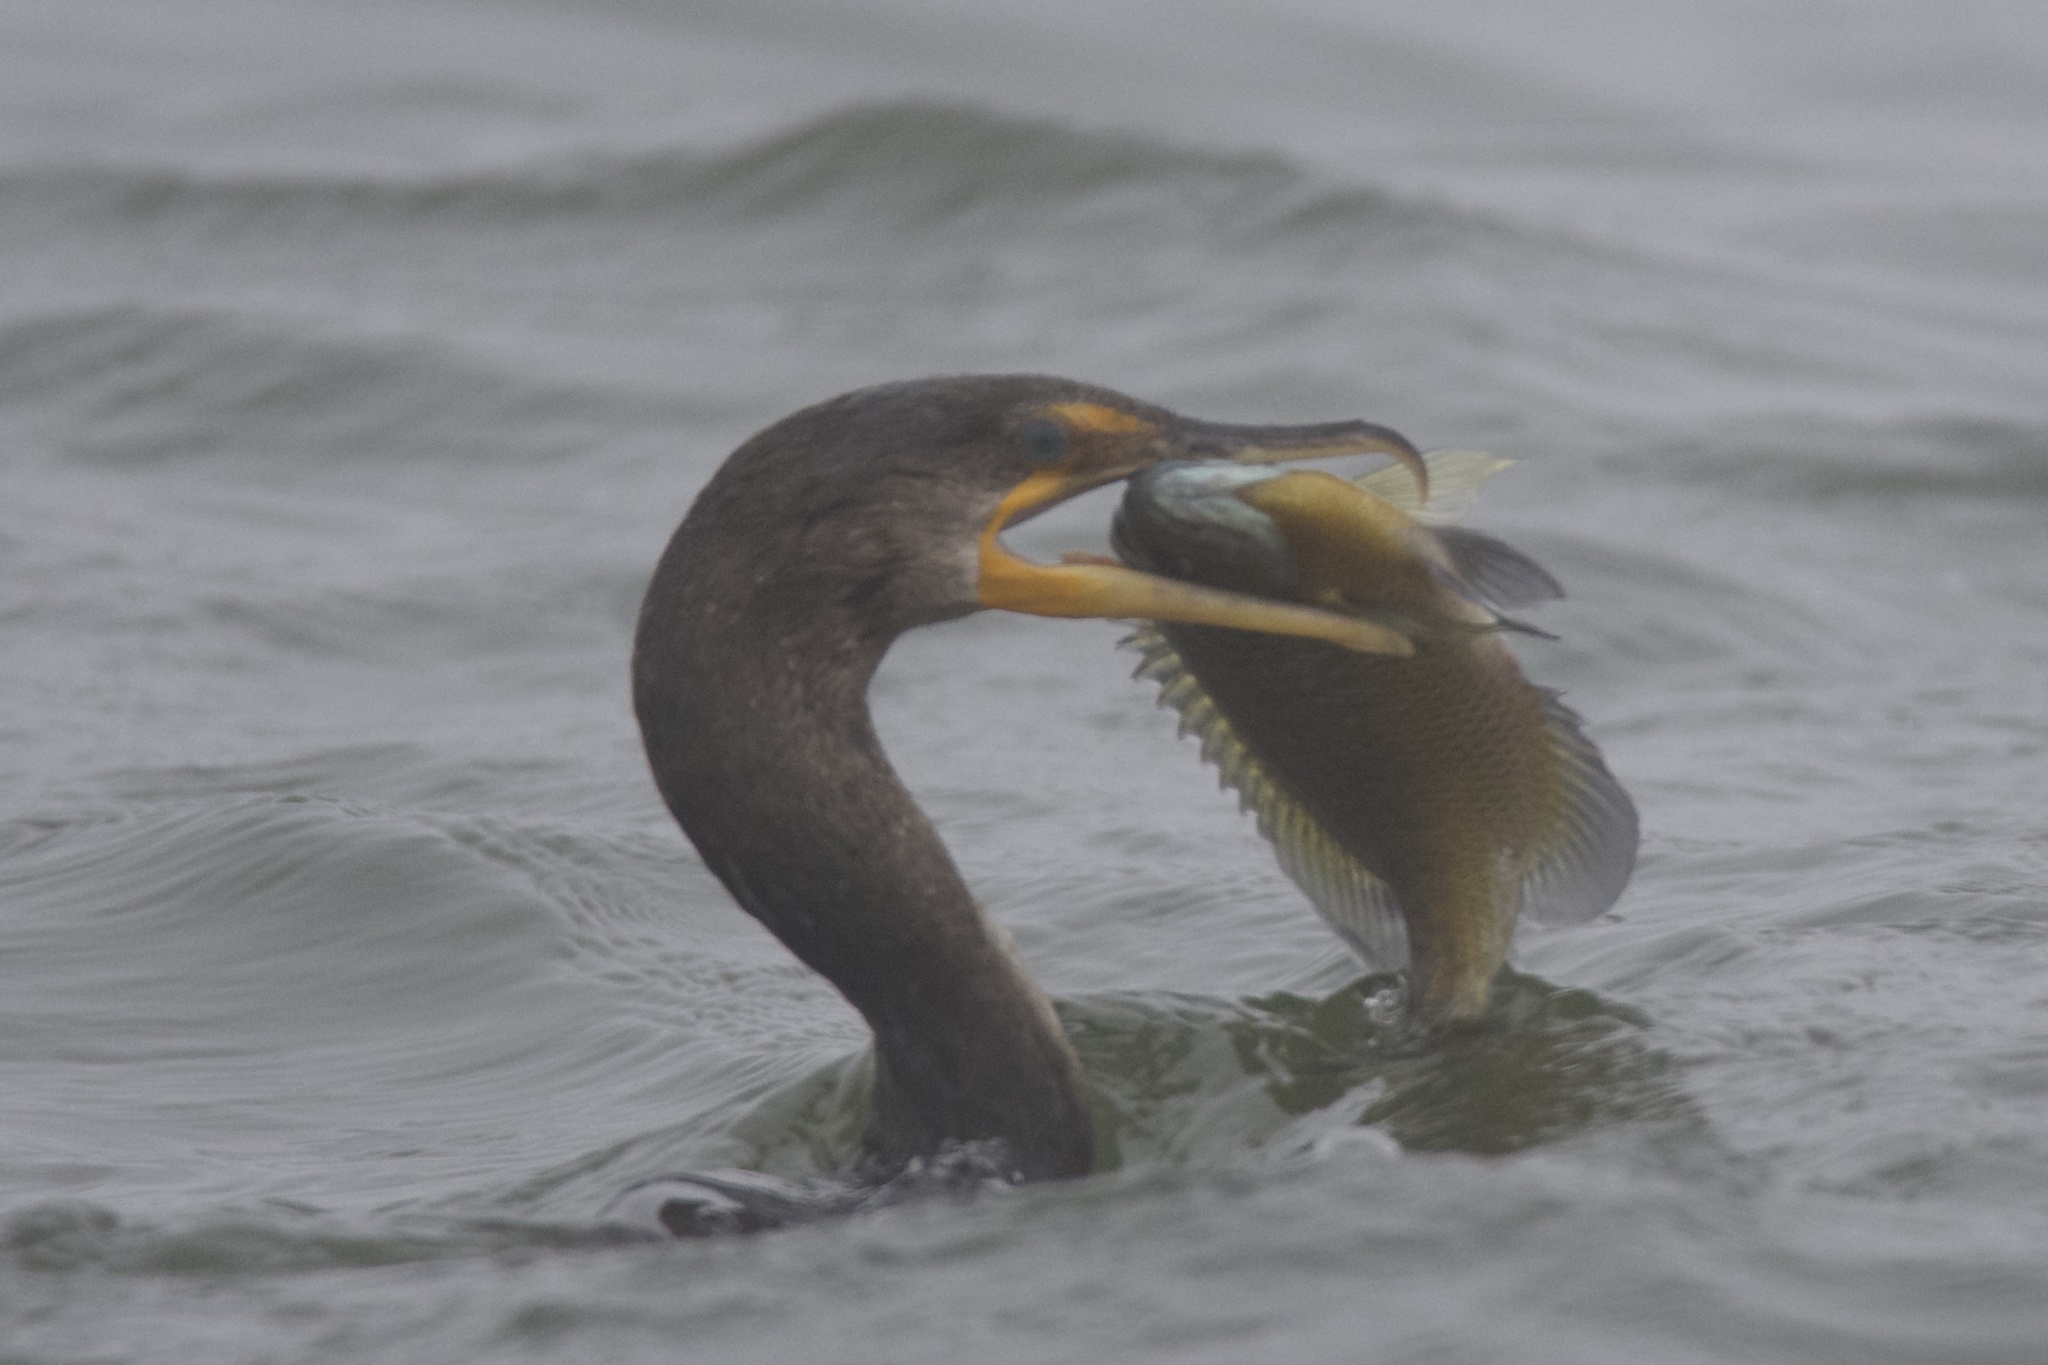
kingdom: Animalia
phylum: Chordata
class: Aves
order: Suliformes
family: Phalacrocoracidae
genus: Phalacrocorax
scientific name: Phalacrocorax auritus
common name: Double-crested cormorant
